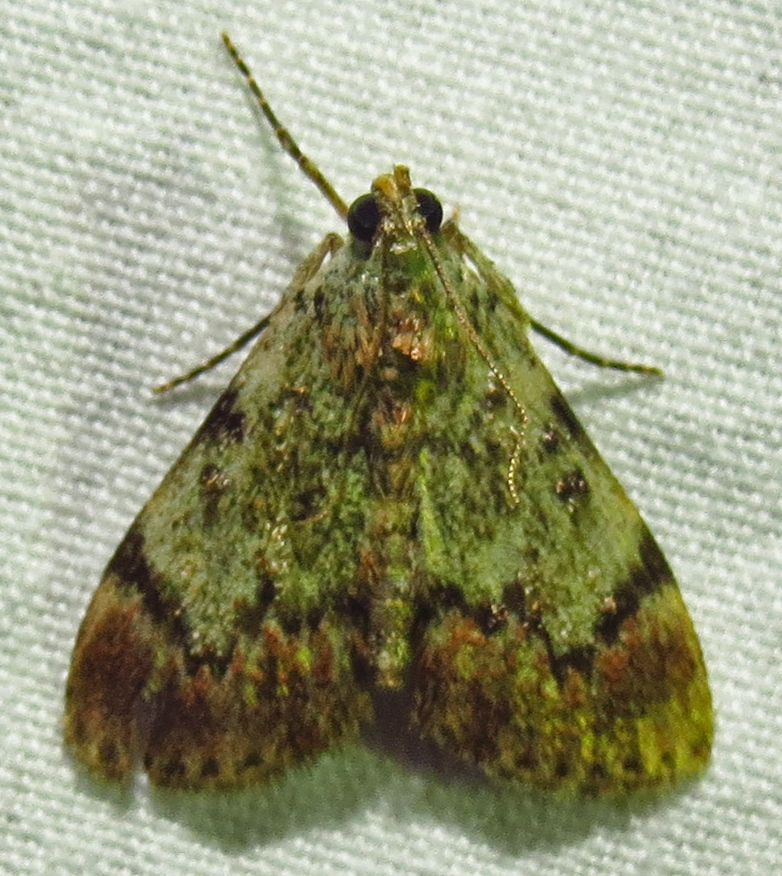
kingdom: Animalia
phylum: Arthropoda
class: Insecta
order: Lepidoptera
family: Pyralidae
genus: Epipaschia
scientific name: Epipaschia superatalis
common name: Dimorphic macalla moth
